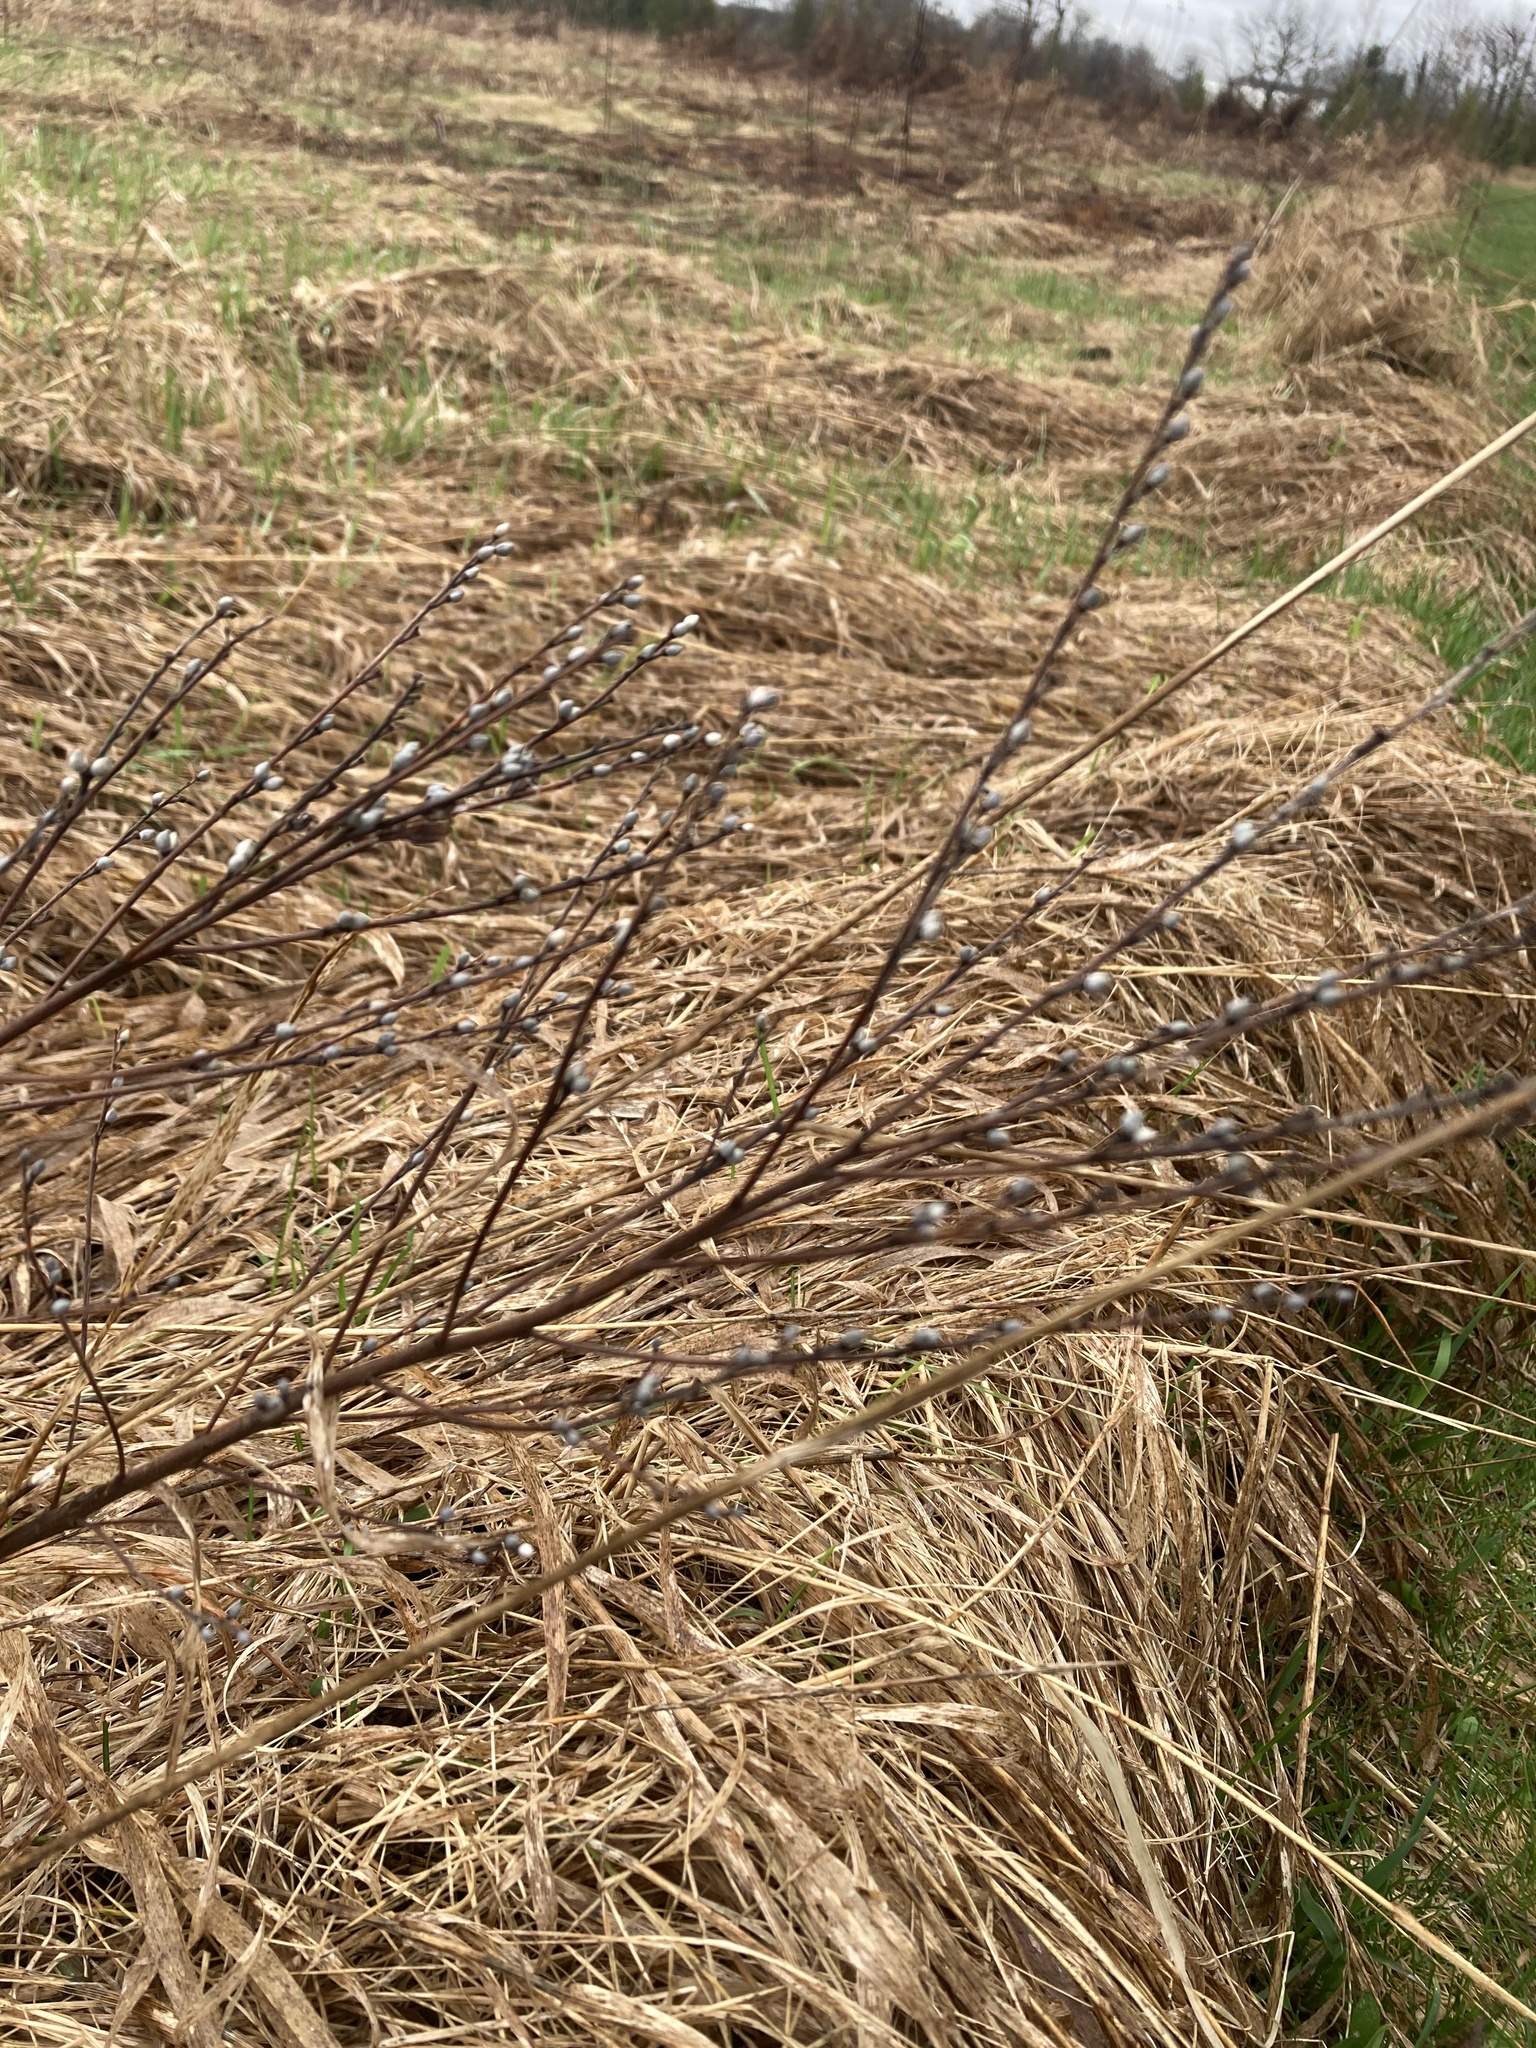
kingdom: Plantae
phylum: Tracheophyta
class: Magnoliopsida
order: Boraginales
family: Boraginaceae
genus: Lithospermum
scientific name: Lithospermum officinale
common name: Common gromwell
